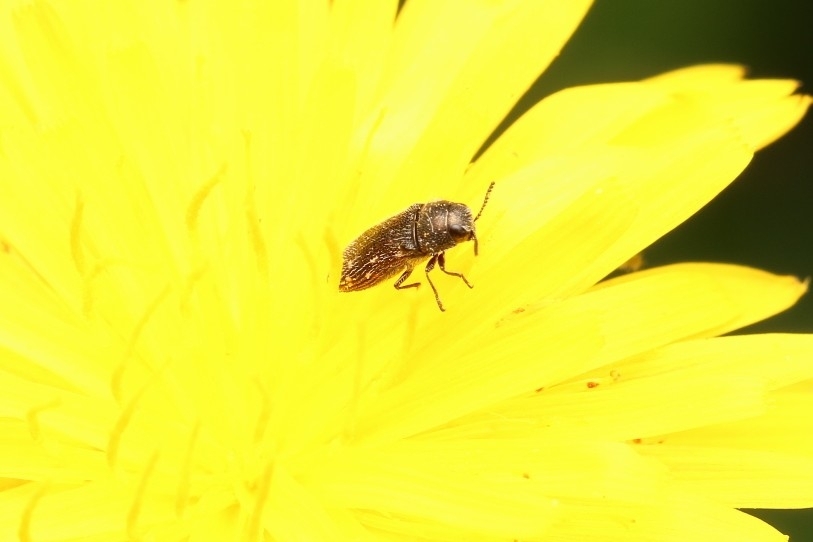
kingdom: Animalia
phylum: Arthropoda
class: Insecta
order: Coleoptera
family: Buprestidae
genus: Acmaeodera
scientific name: Acmaeodera tubulus
